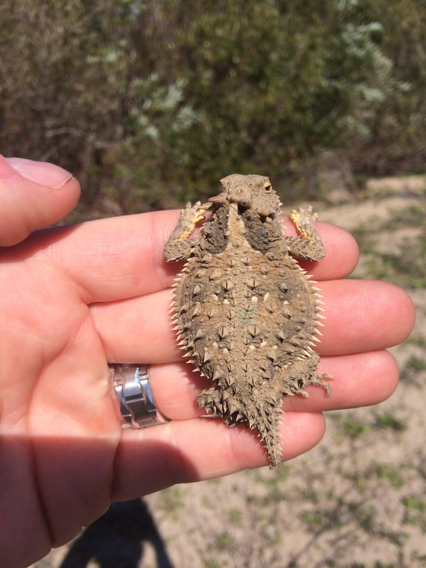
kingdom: Animalia
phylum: Chordata
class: Squamata
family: Phrynosomatidae
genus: Phrynosoma
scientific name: Phrynosoma blainvillii
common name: San diego horned lizard
